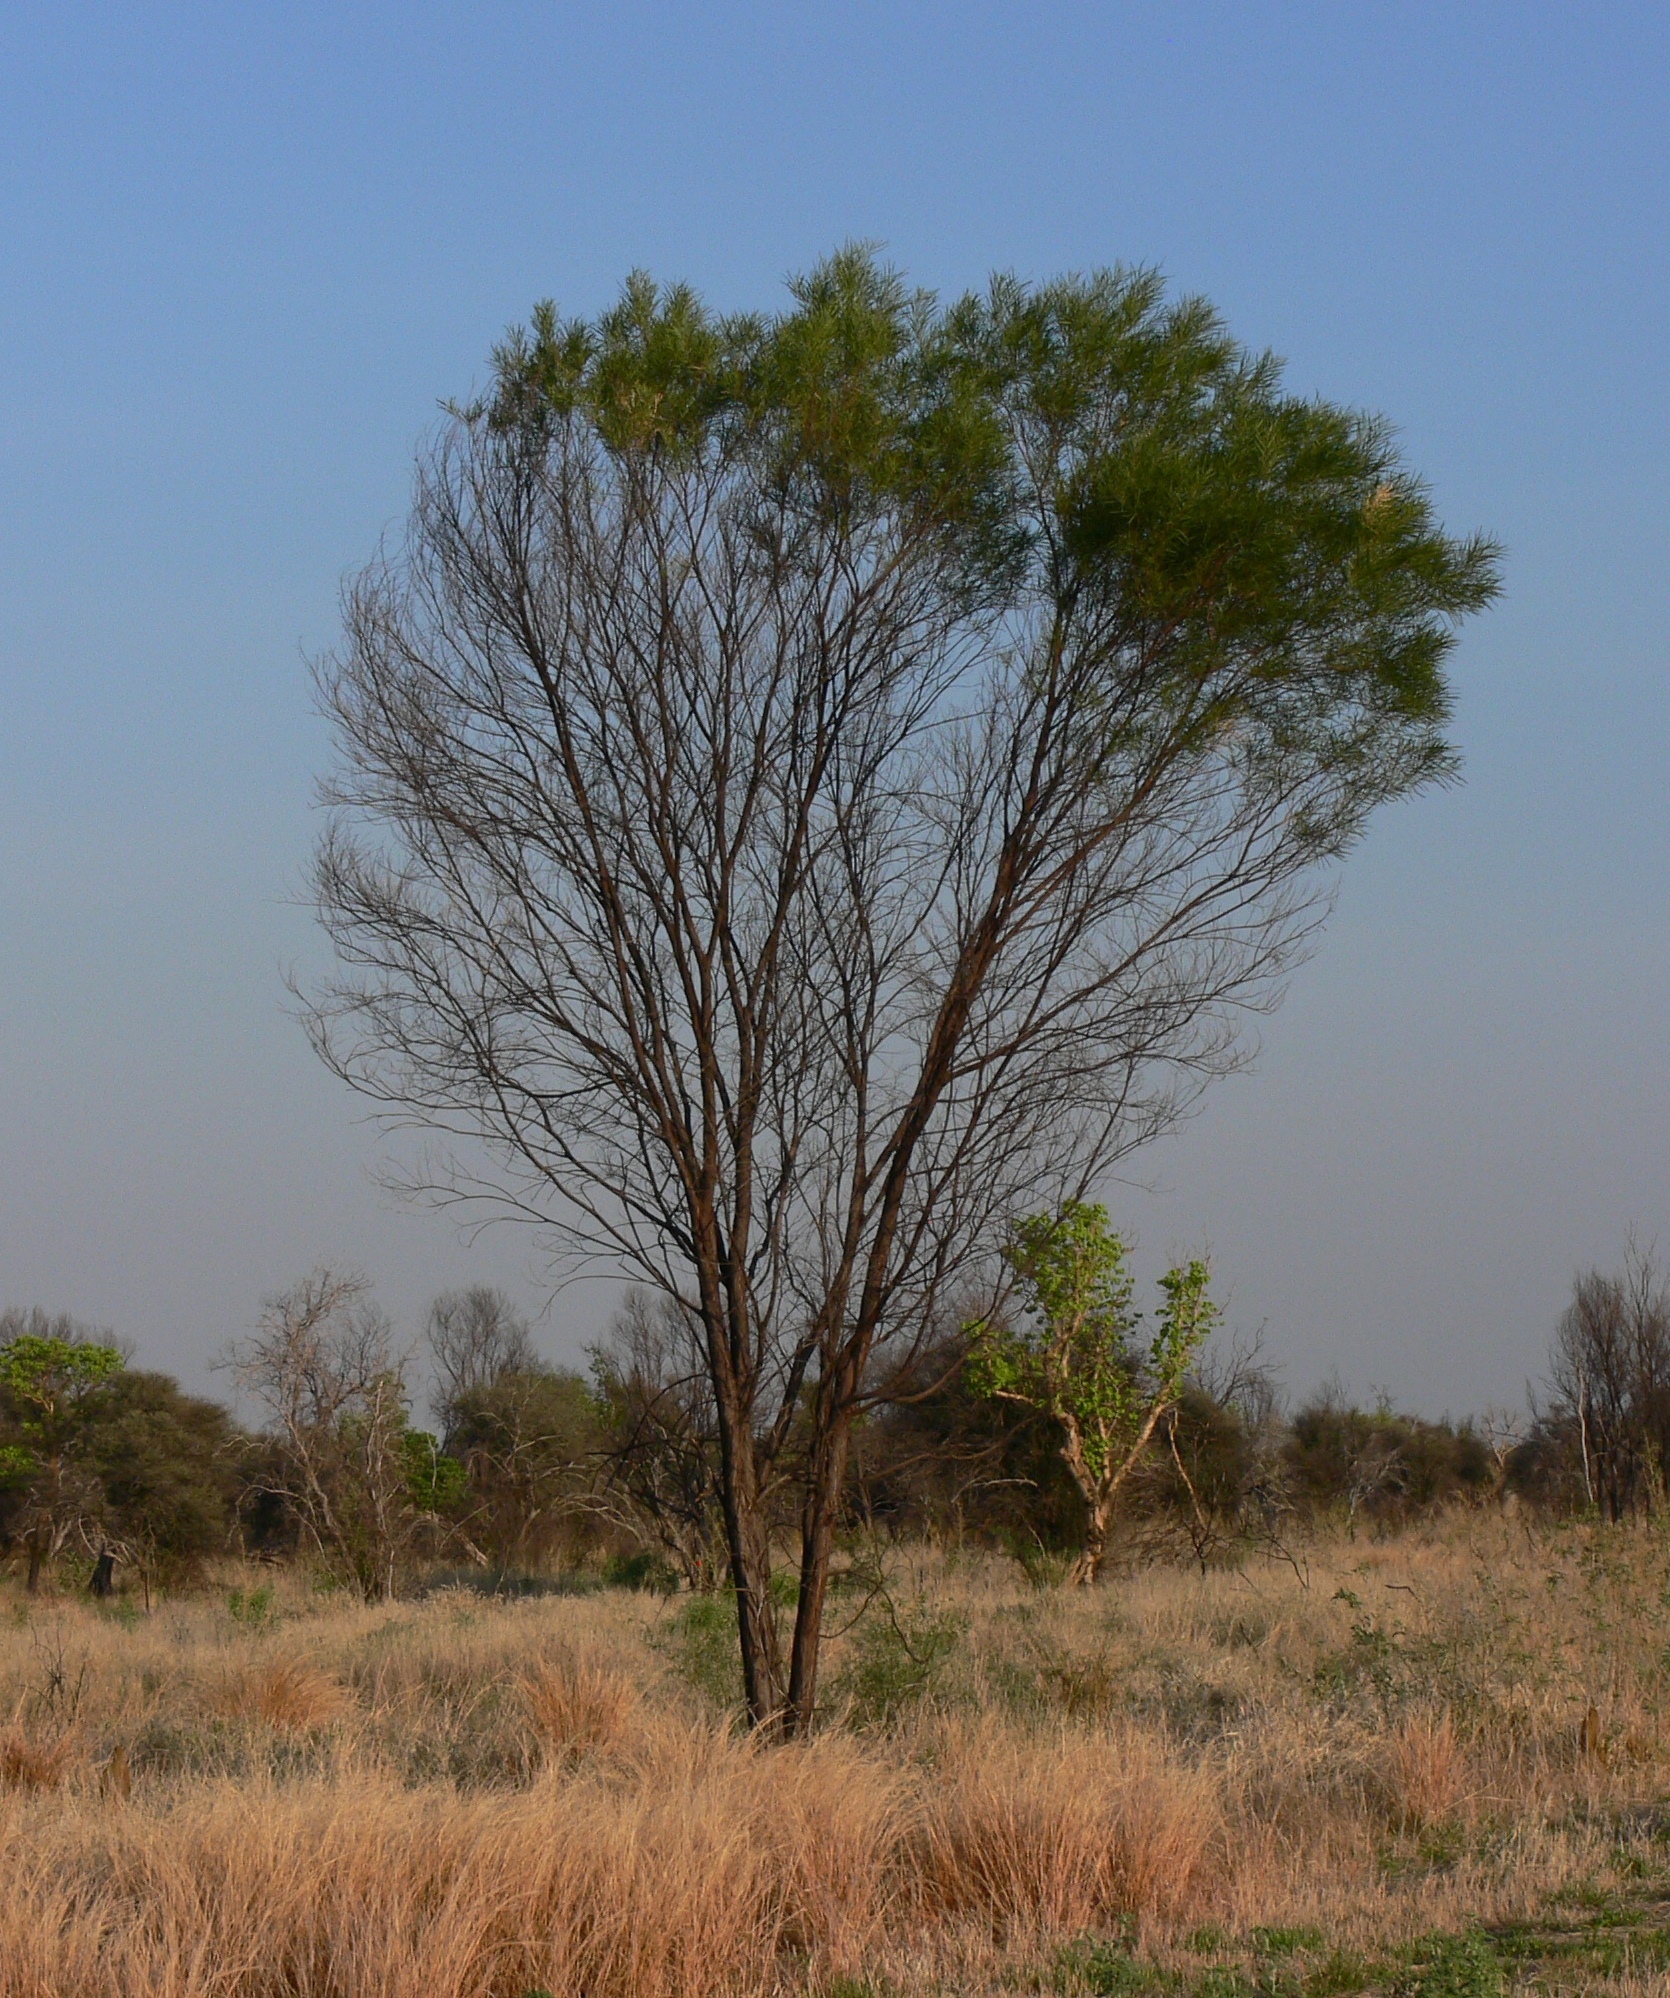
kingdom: Plantae
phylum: Tracheophyta
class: Magnoliopsida
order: Fabales
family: Fabaceae
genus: Acacia
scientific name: Acacia shirleyi
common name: Lancewood
